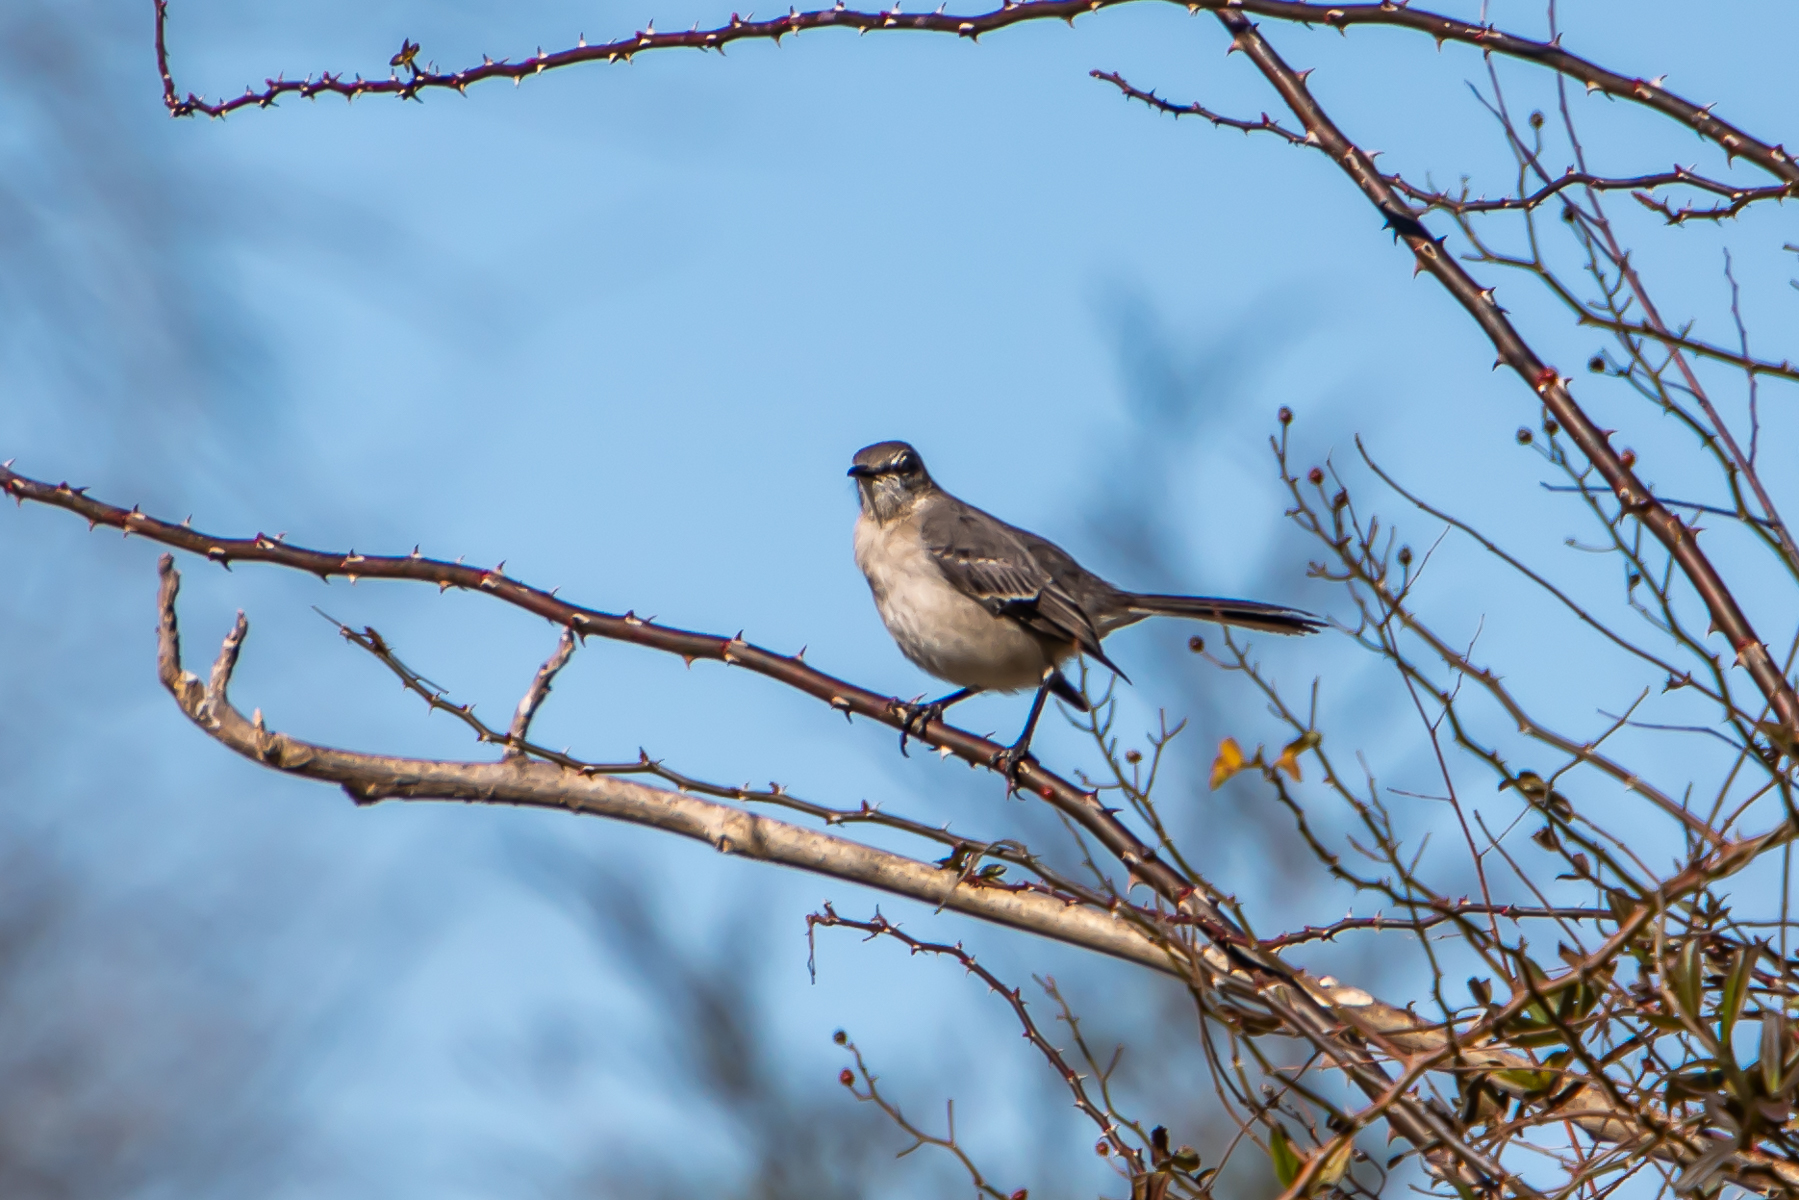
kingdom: Animalia
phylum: Chordata
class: Aves
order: Passeriformes
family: Mimidae
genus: Mimus
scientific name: Mimus polyglottos
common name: Northern mockingbird
